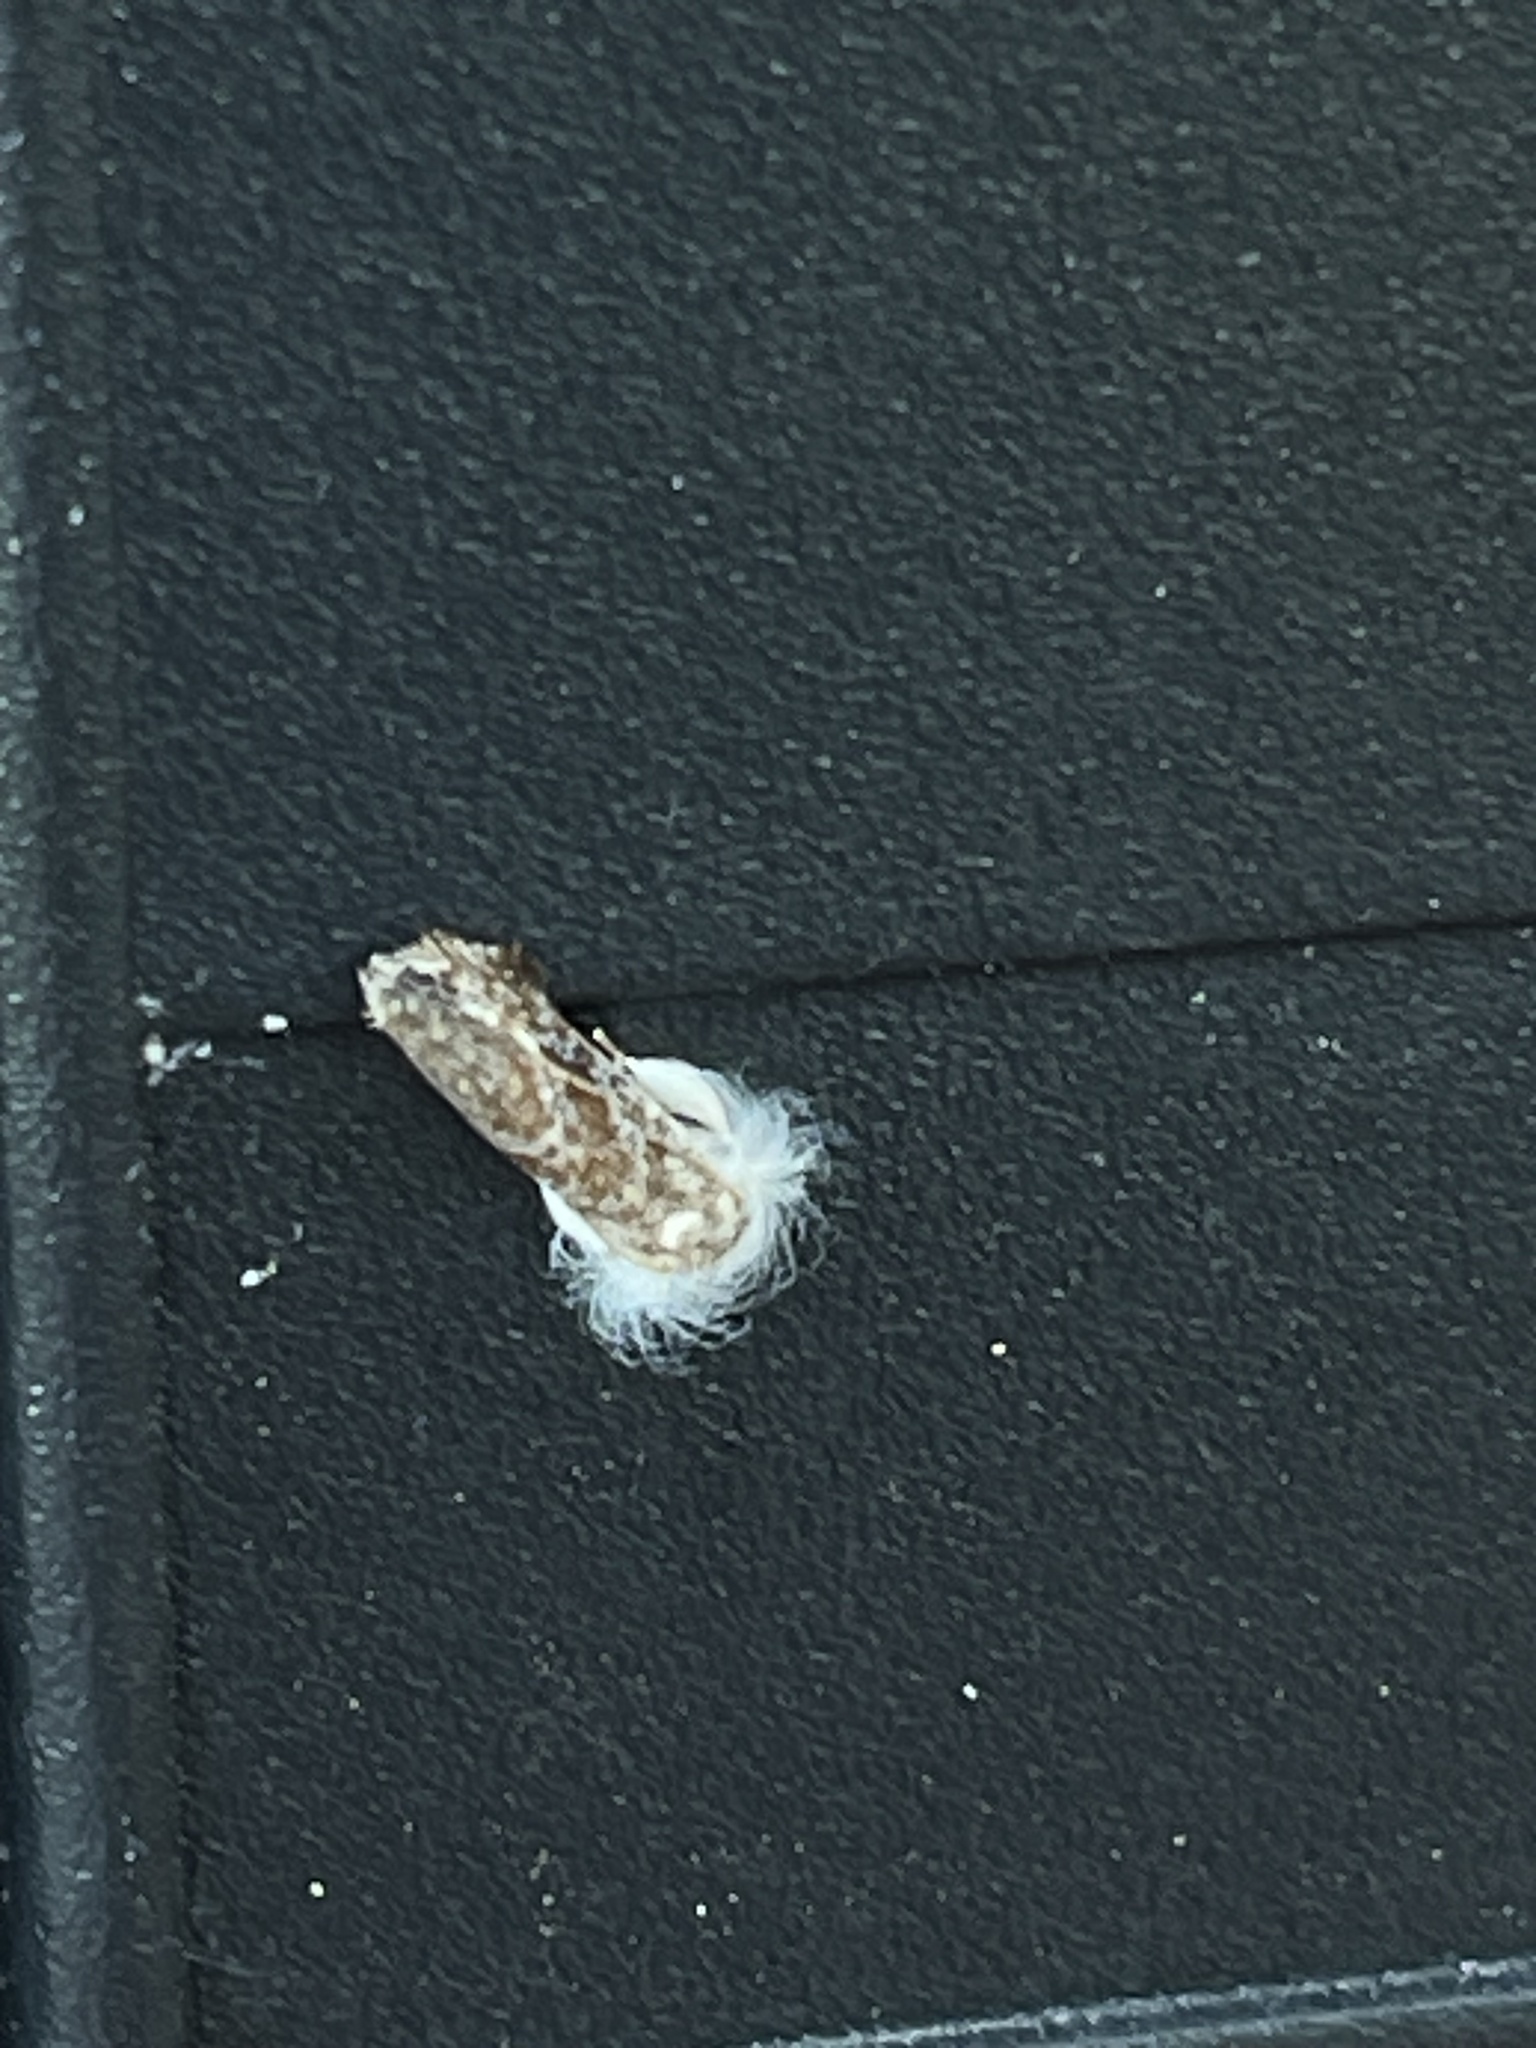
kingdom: Animalia
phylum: Arthropoda
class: Insecta
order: Lepidoptera
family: Tineidae
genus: Acrolophus
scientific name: Acrolophus mycetophagus
